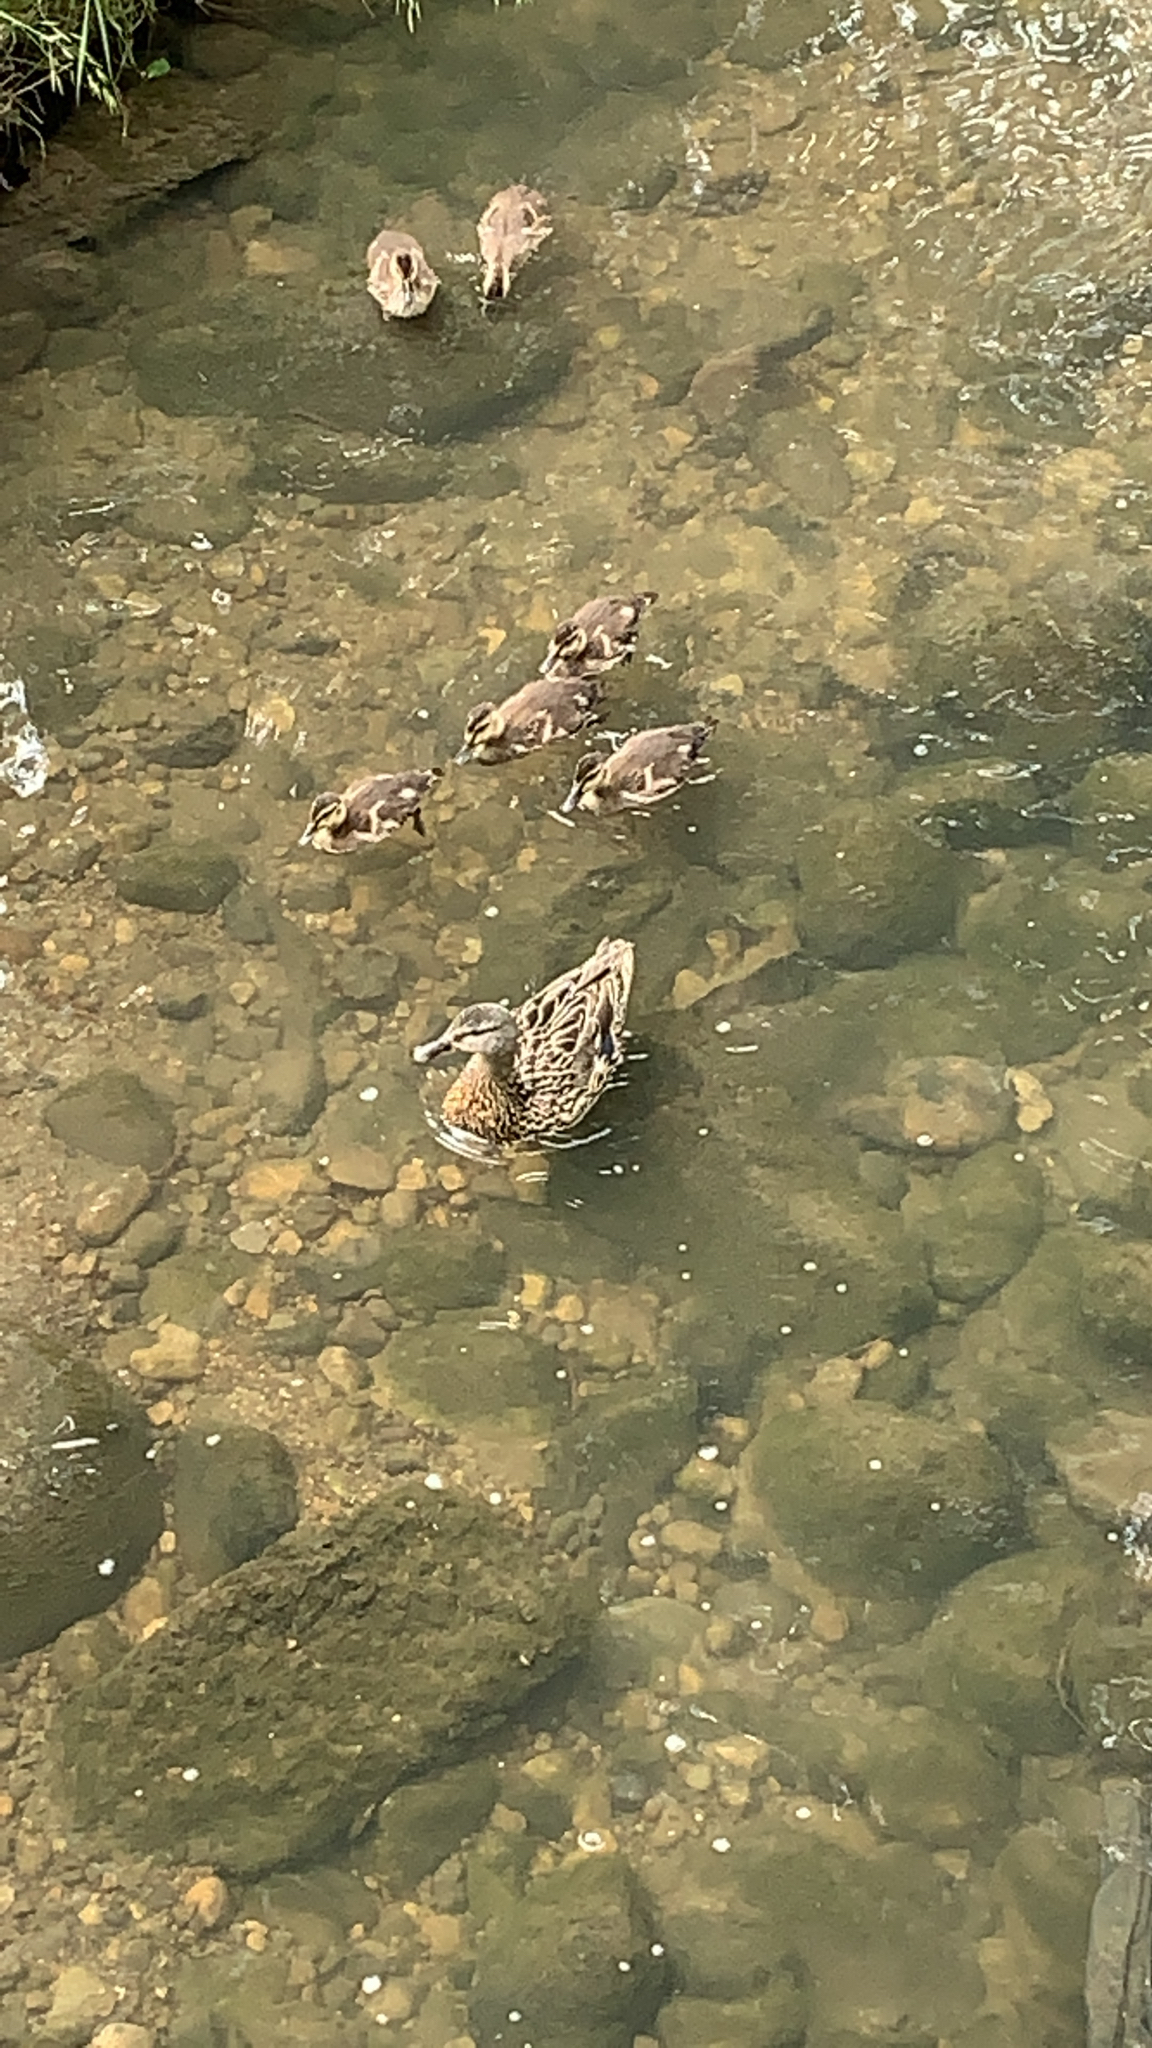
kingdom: Animalia
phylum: Chordata
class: Aves
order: Anseriformes
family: Anatidae
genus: Anas
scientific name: Anas platyrhynchos
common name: Mallard
